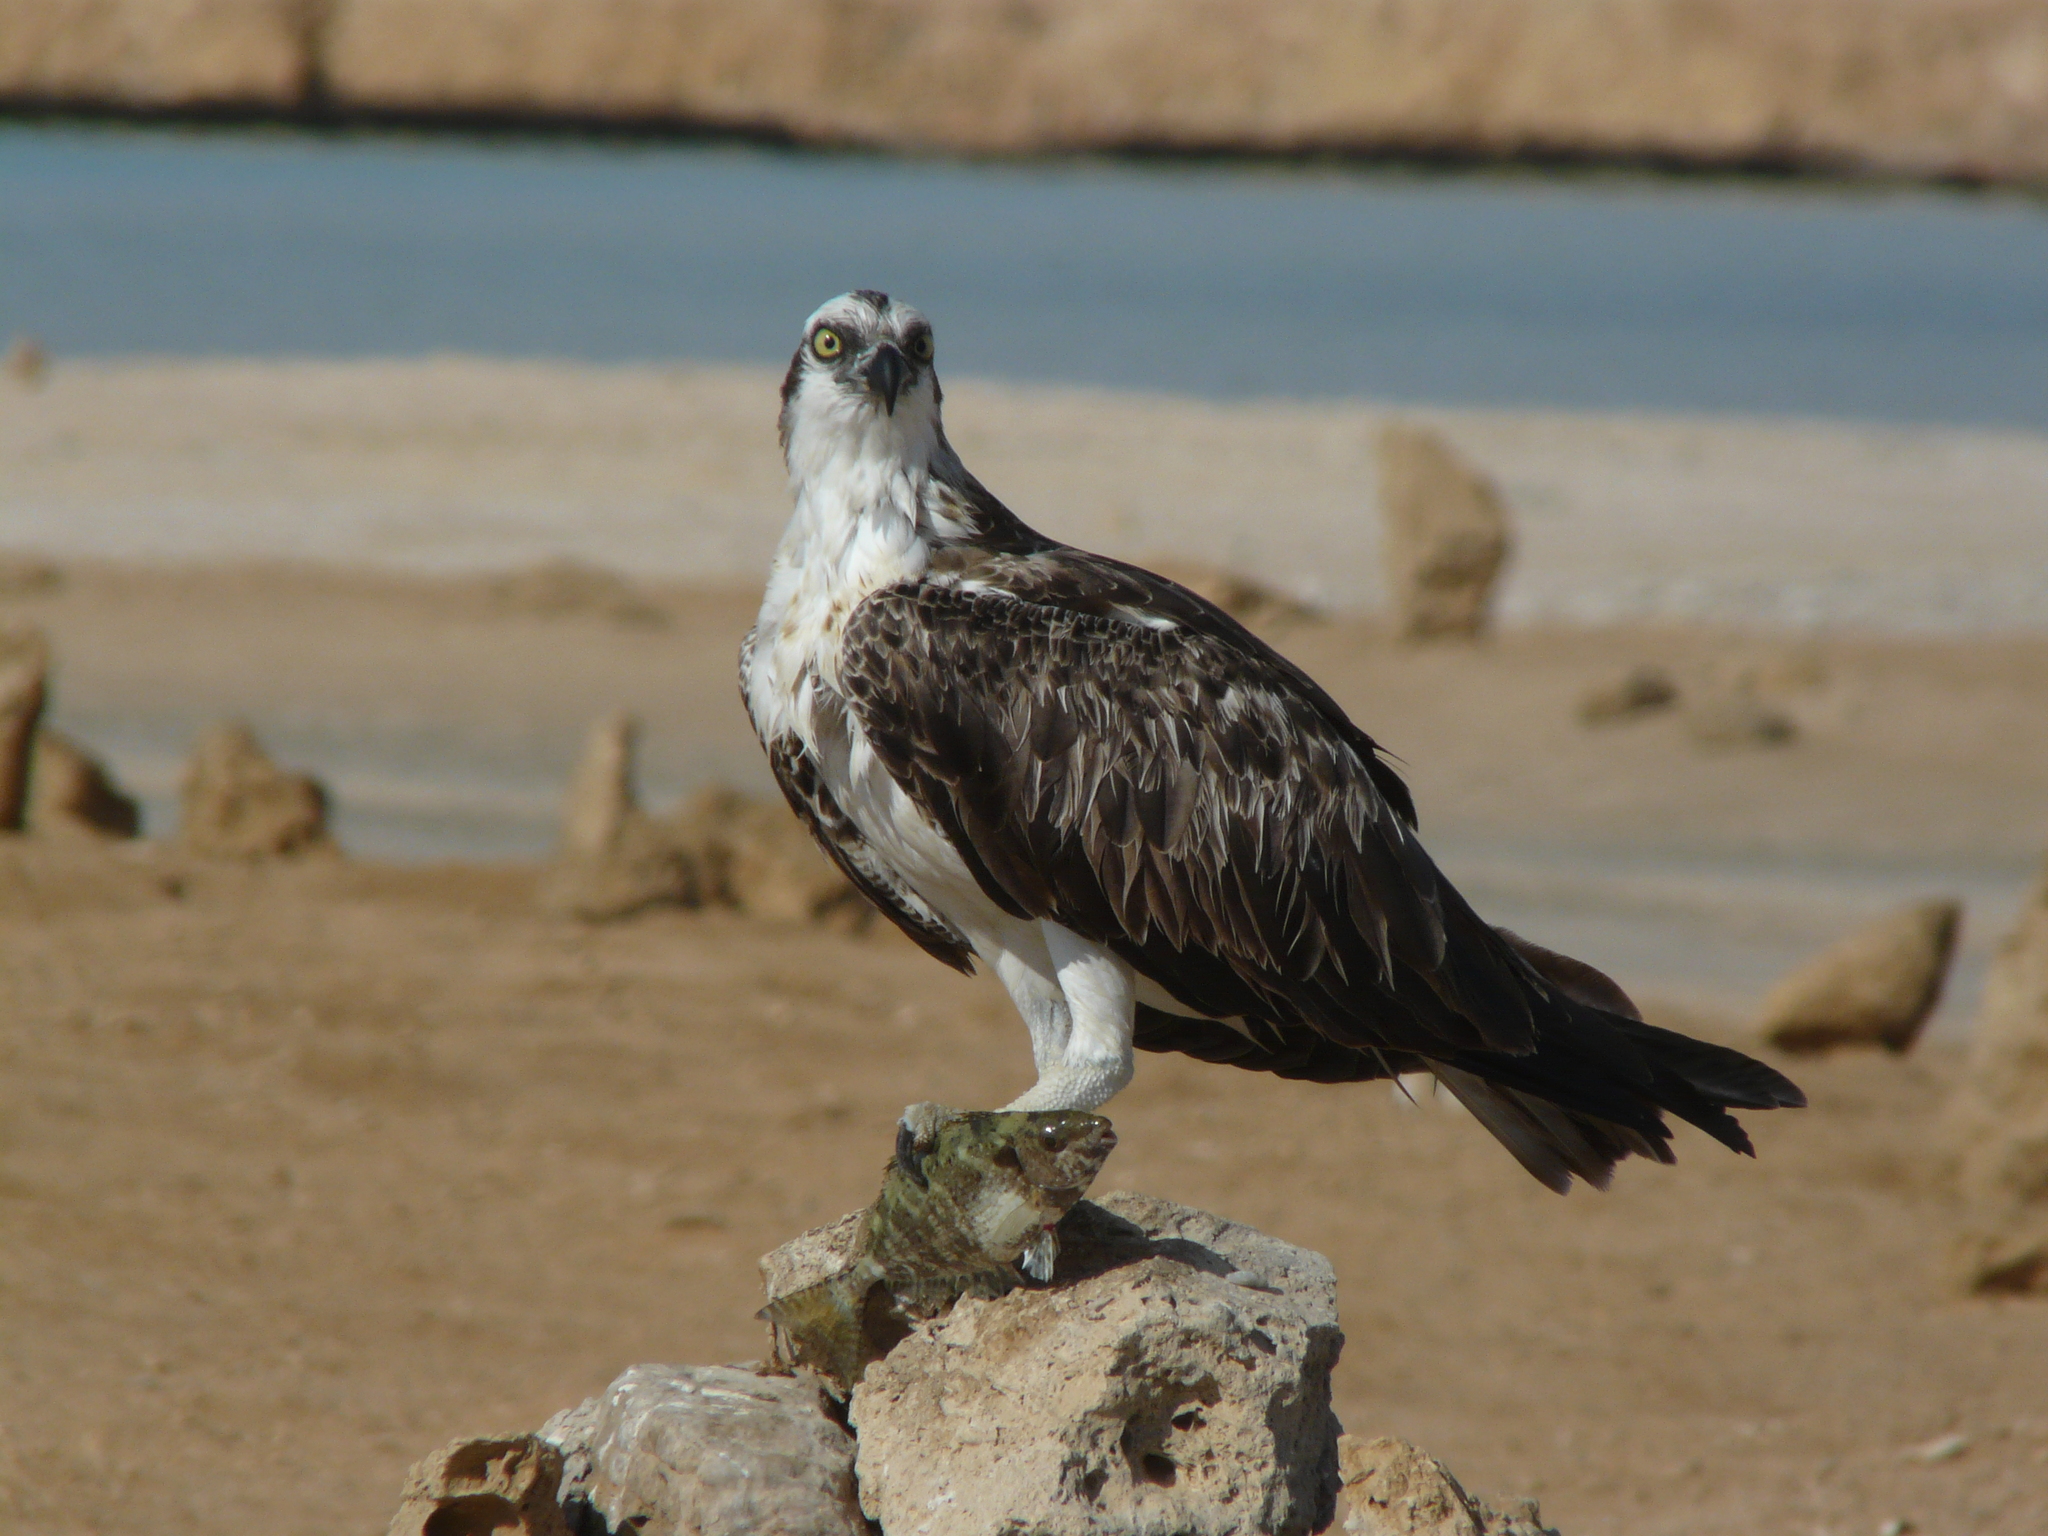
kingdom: Animalia
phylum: Chordata
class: Aves
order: Accipitriformes
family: Pandionidae
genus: Pandion
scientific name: Pandion haliaetus
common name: Osprey
